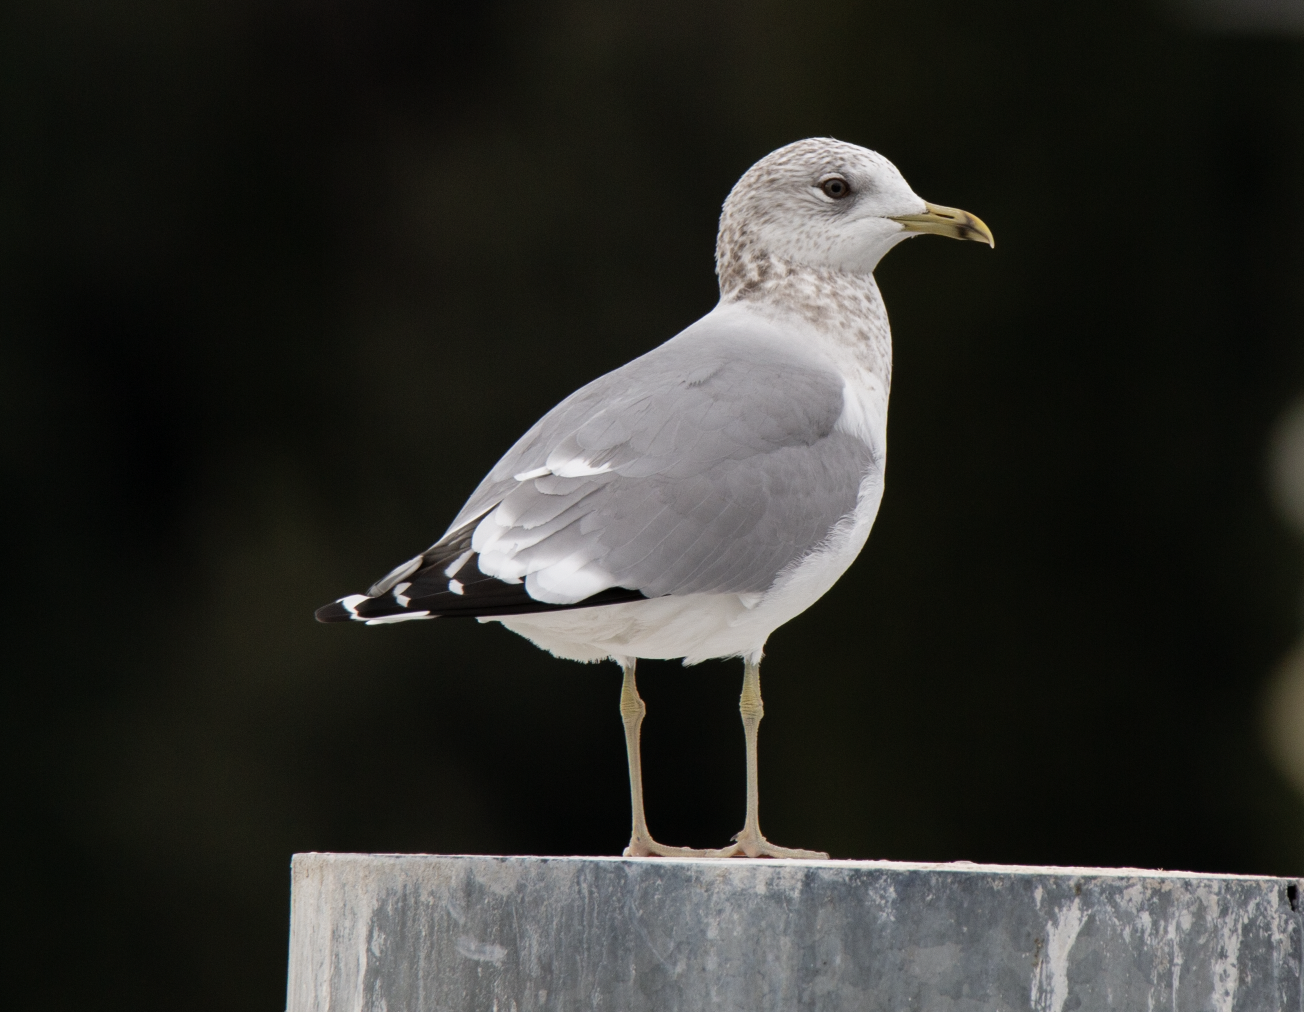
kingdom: Animalia
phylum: Chordata
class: Aves
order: Charadriiformes
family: Laridae
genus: Larus
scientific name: Larus canus
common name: Mew gull
